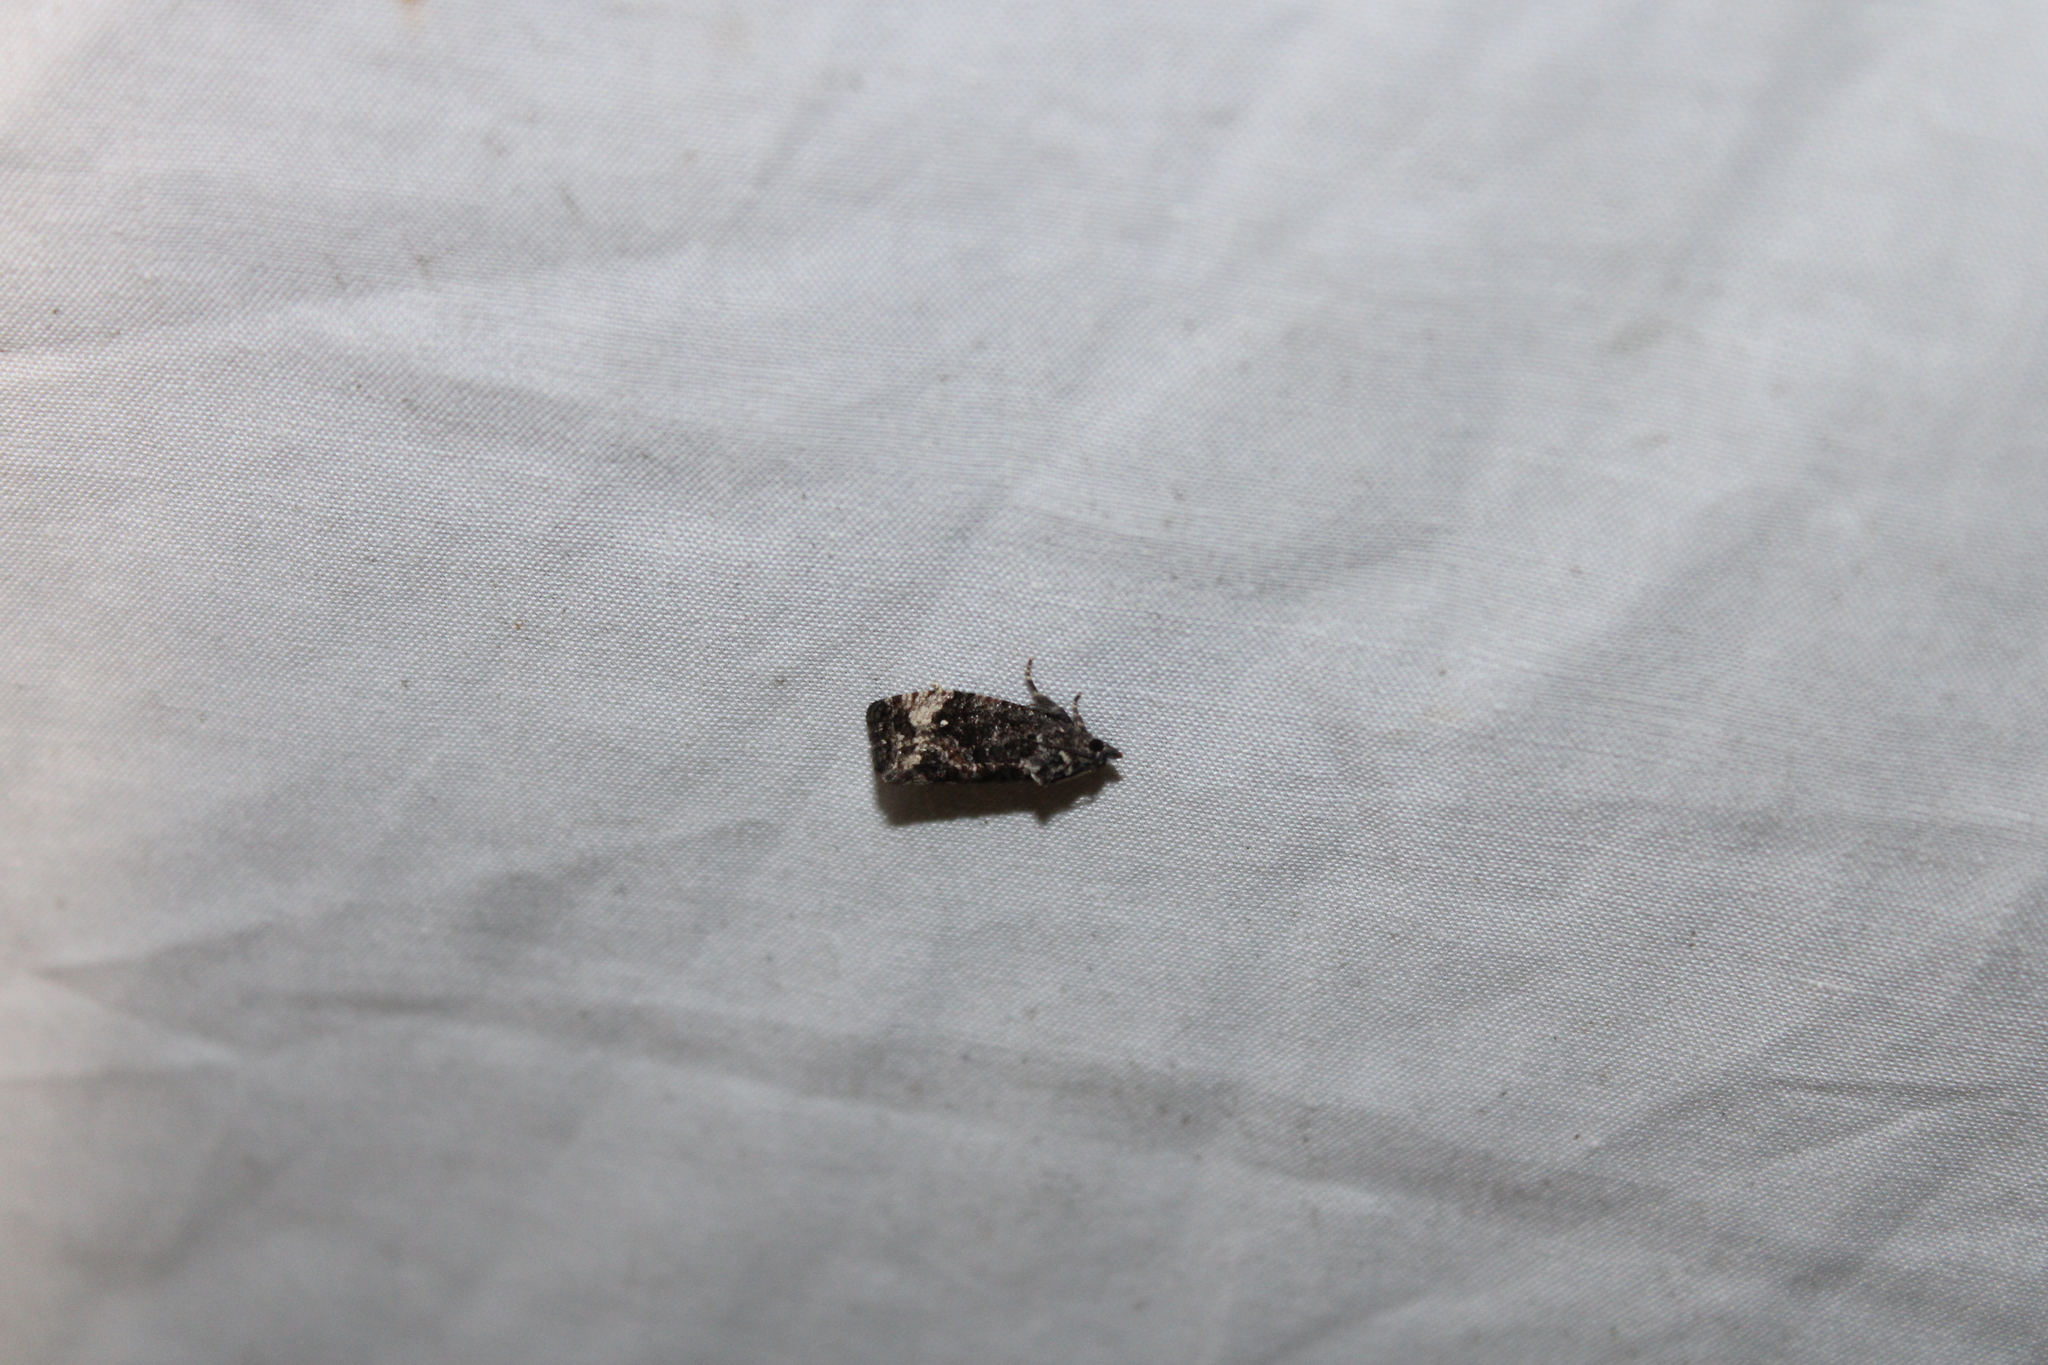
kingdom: Animalia
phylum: Arthropoda
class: Insecta
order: Lepidoptera
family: Tortricidae
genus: Gymnandrosoma
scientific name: Gymnandrosoma punctidiscanum
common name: Dotted ecdytolopha moth
